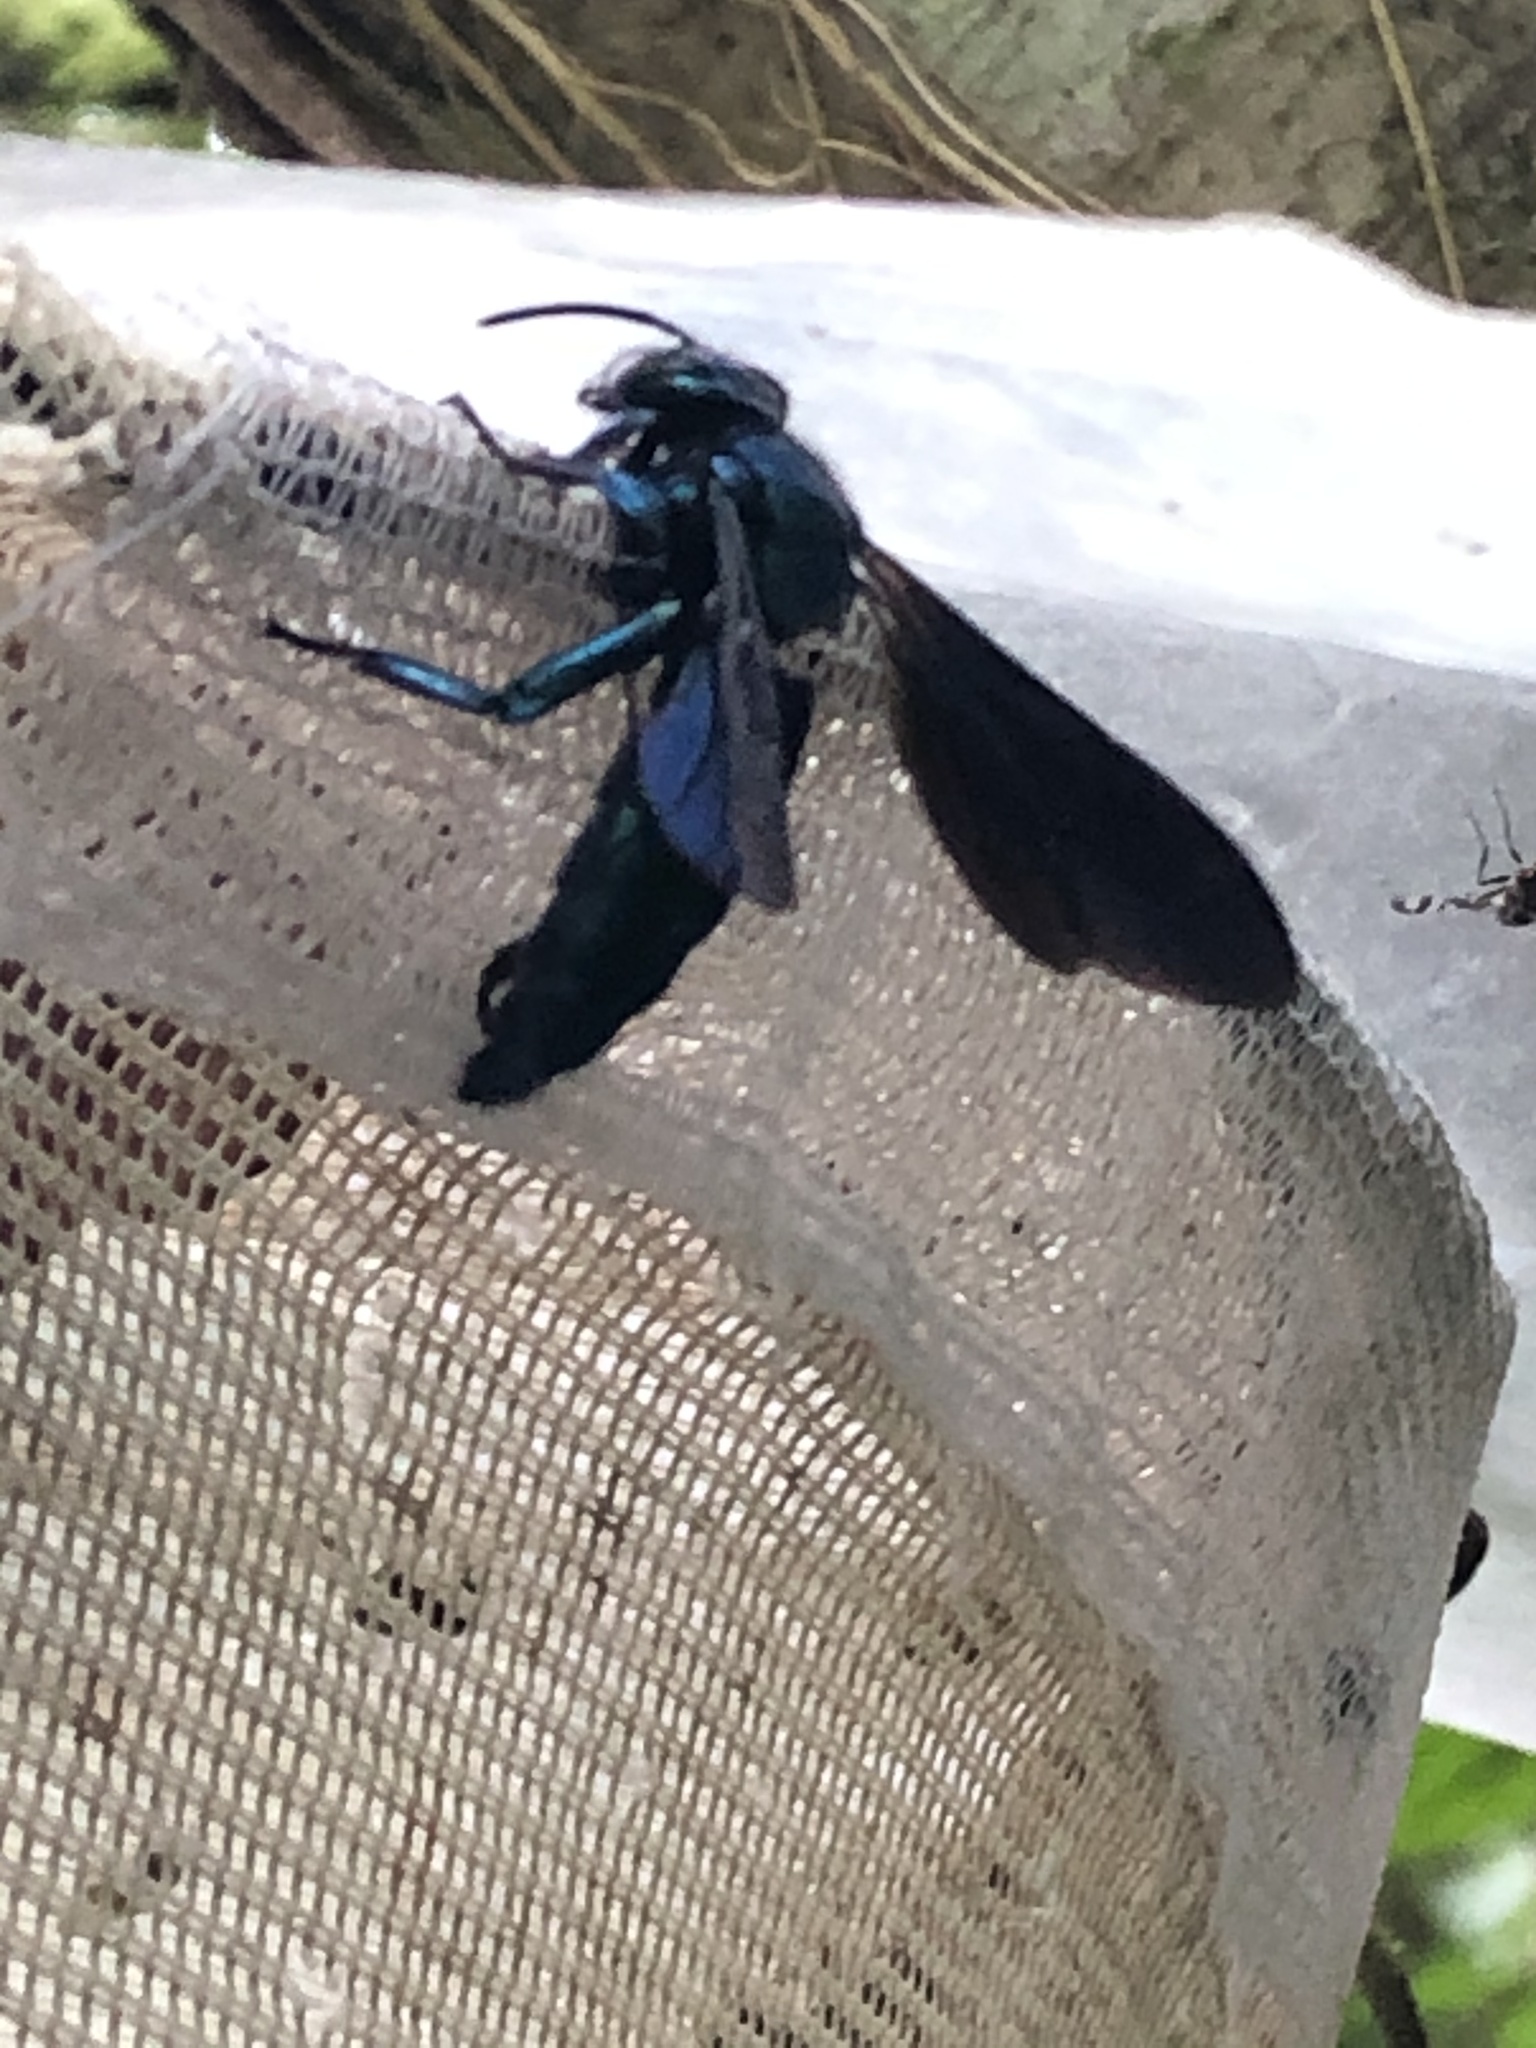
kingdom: Animalia
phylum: Arthropoda
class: Insecta
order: Hymenoptera
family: Apidae
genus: Aglae
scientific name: Aglae caerulea
